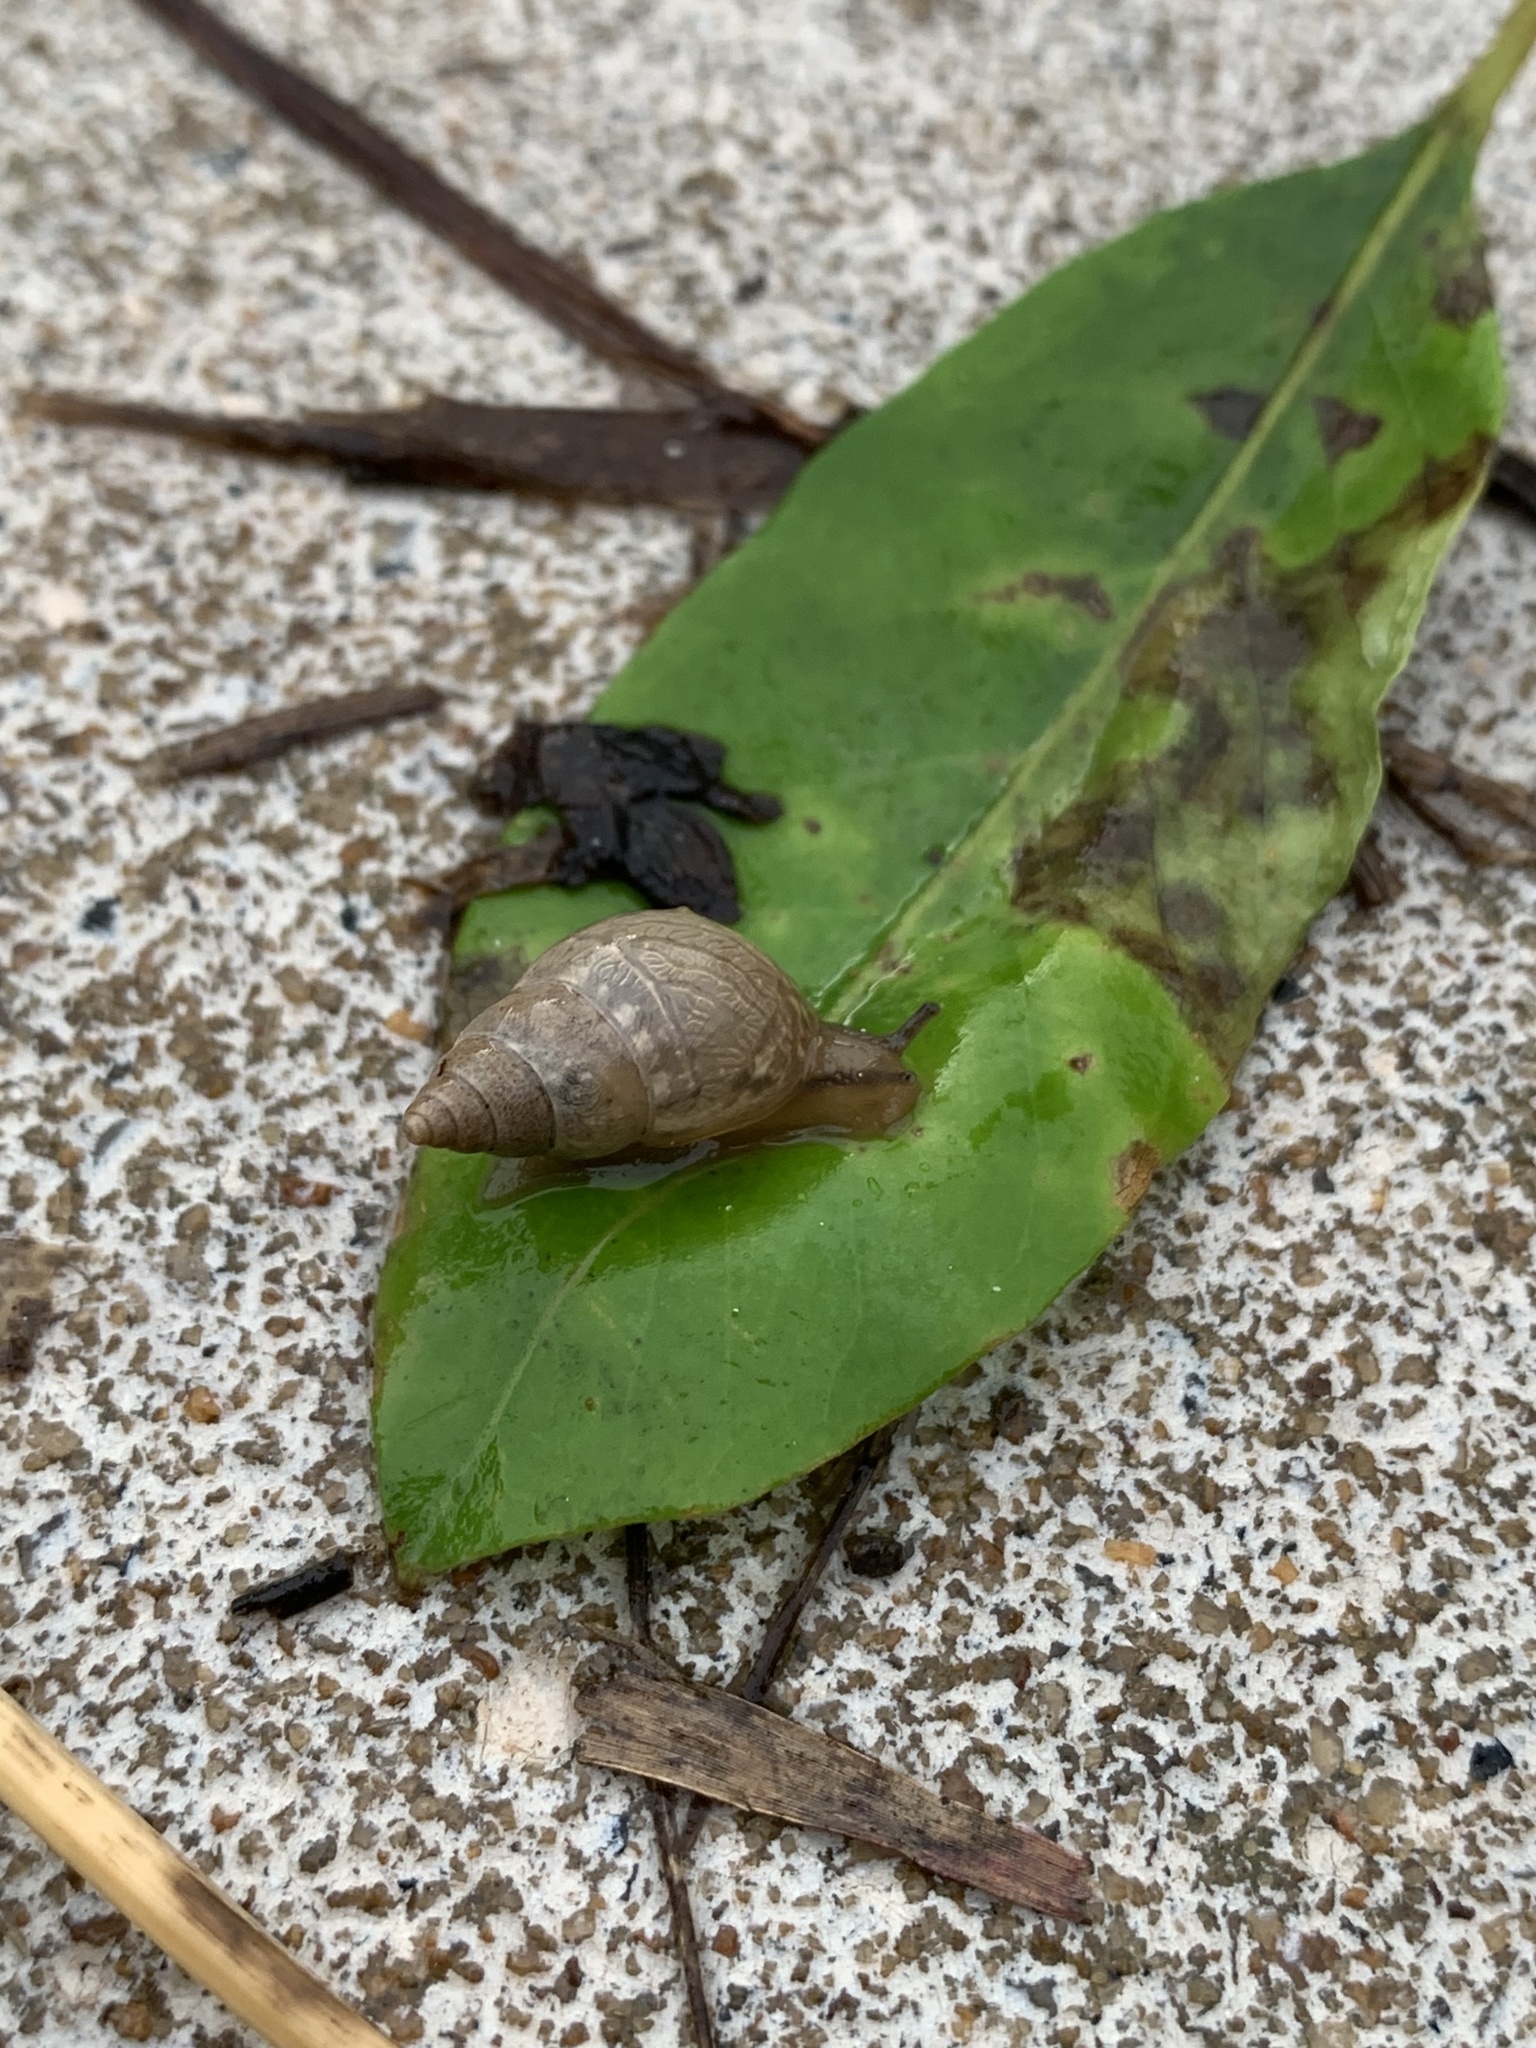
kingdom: Animalia
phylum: Mollusca
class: Gastropoda
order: Stylommatophora
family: Bulimulidae
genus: Bulimulus
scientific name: Bulimulus tenuissimus
